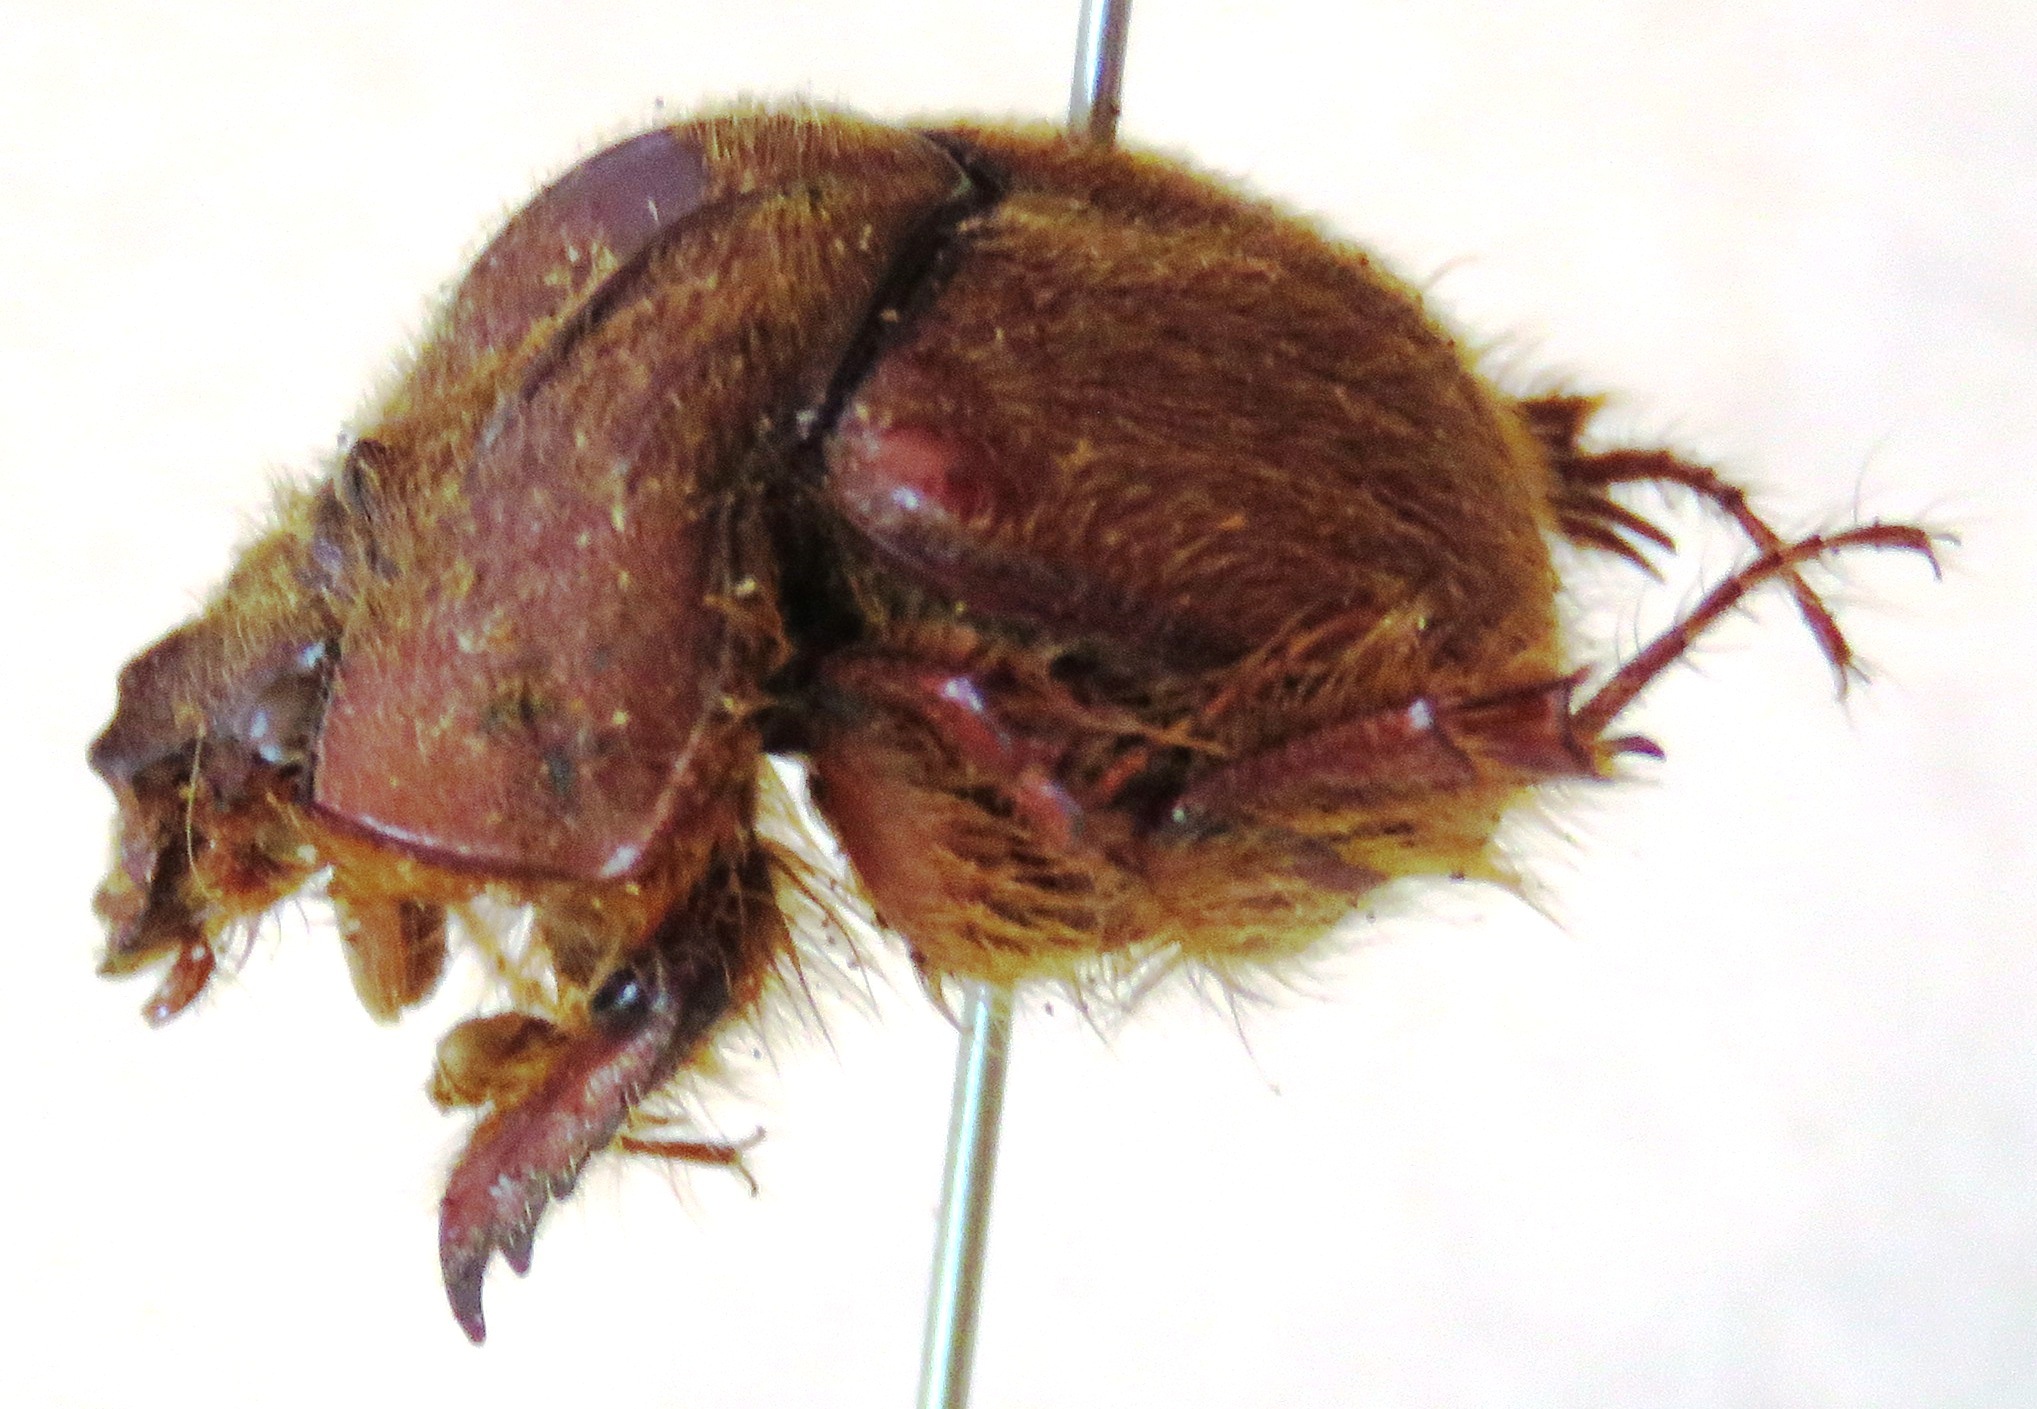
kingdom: Animalia
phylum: Arthropoda
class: Insecta
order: Coleoptera
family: Geotrupidae
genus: Neoathyreus
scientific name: Neoathyreus lanuginosus
